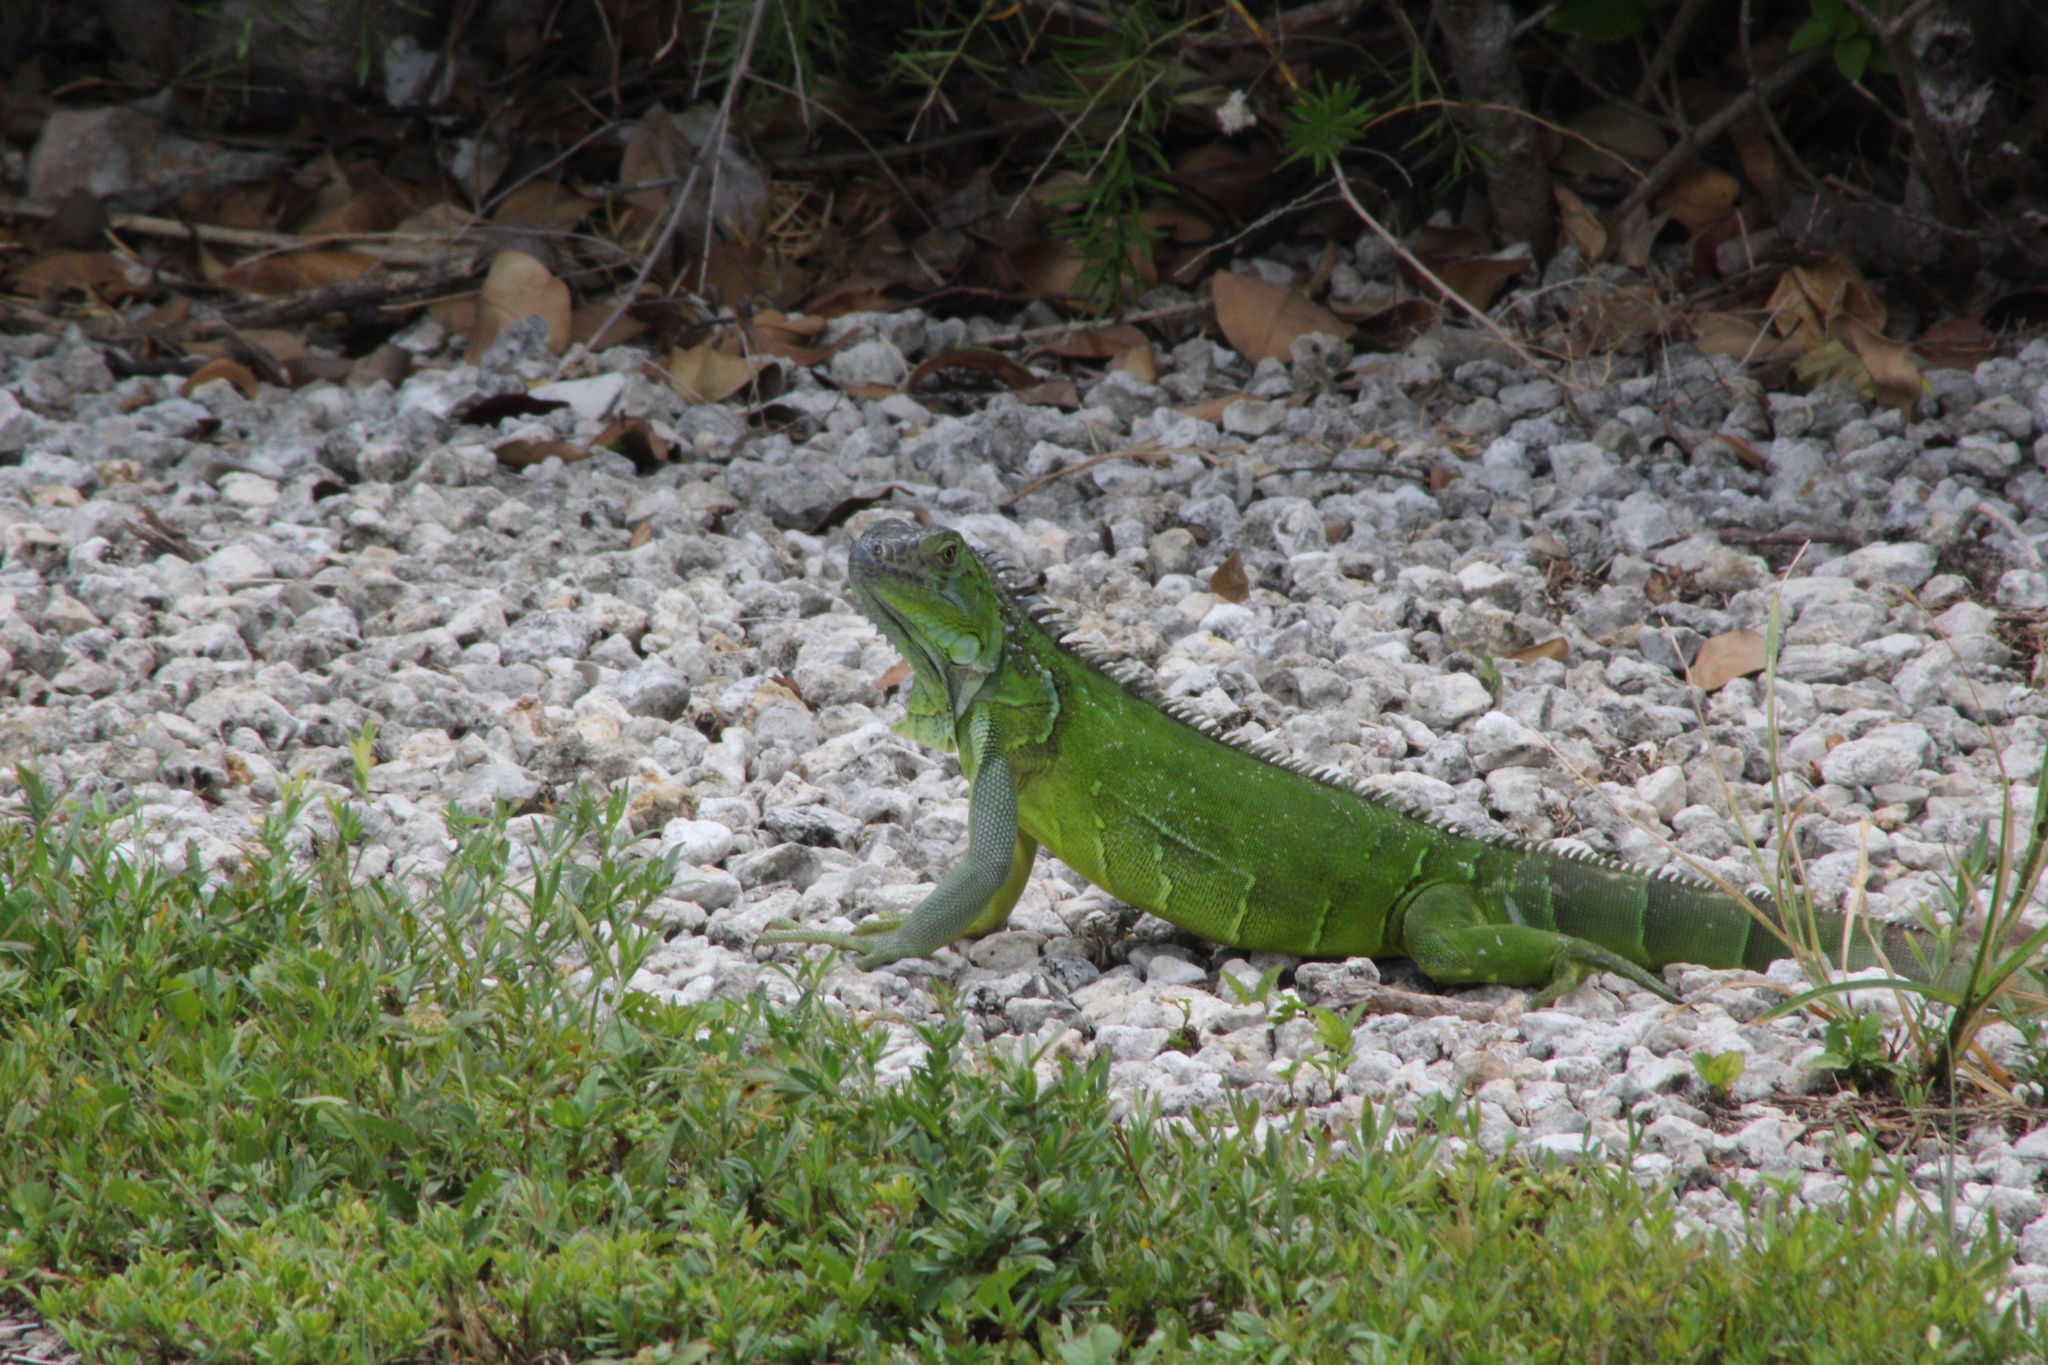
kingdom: Animalia
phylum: Chordata
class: Squamata
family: Iguanidae
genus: Iguana
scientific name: Iguana iguana
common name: Green iguana
